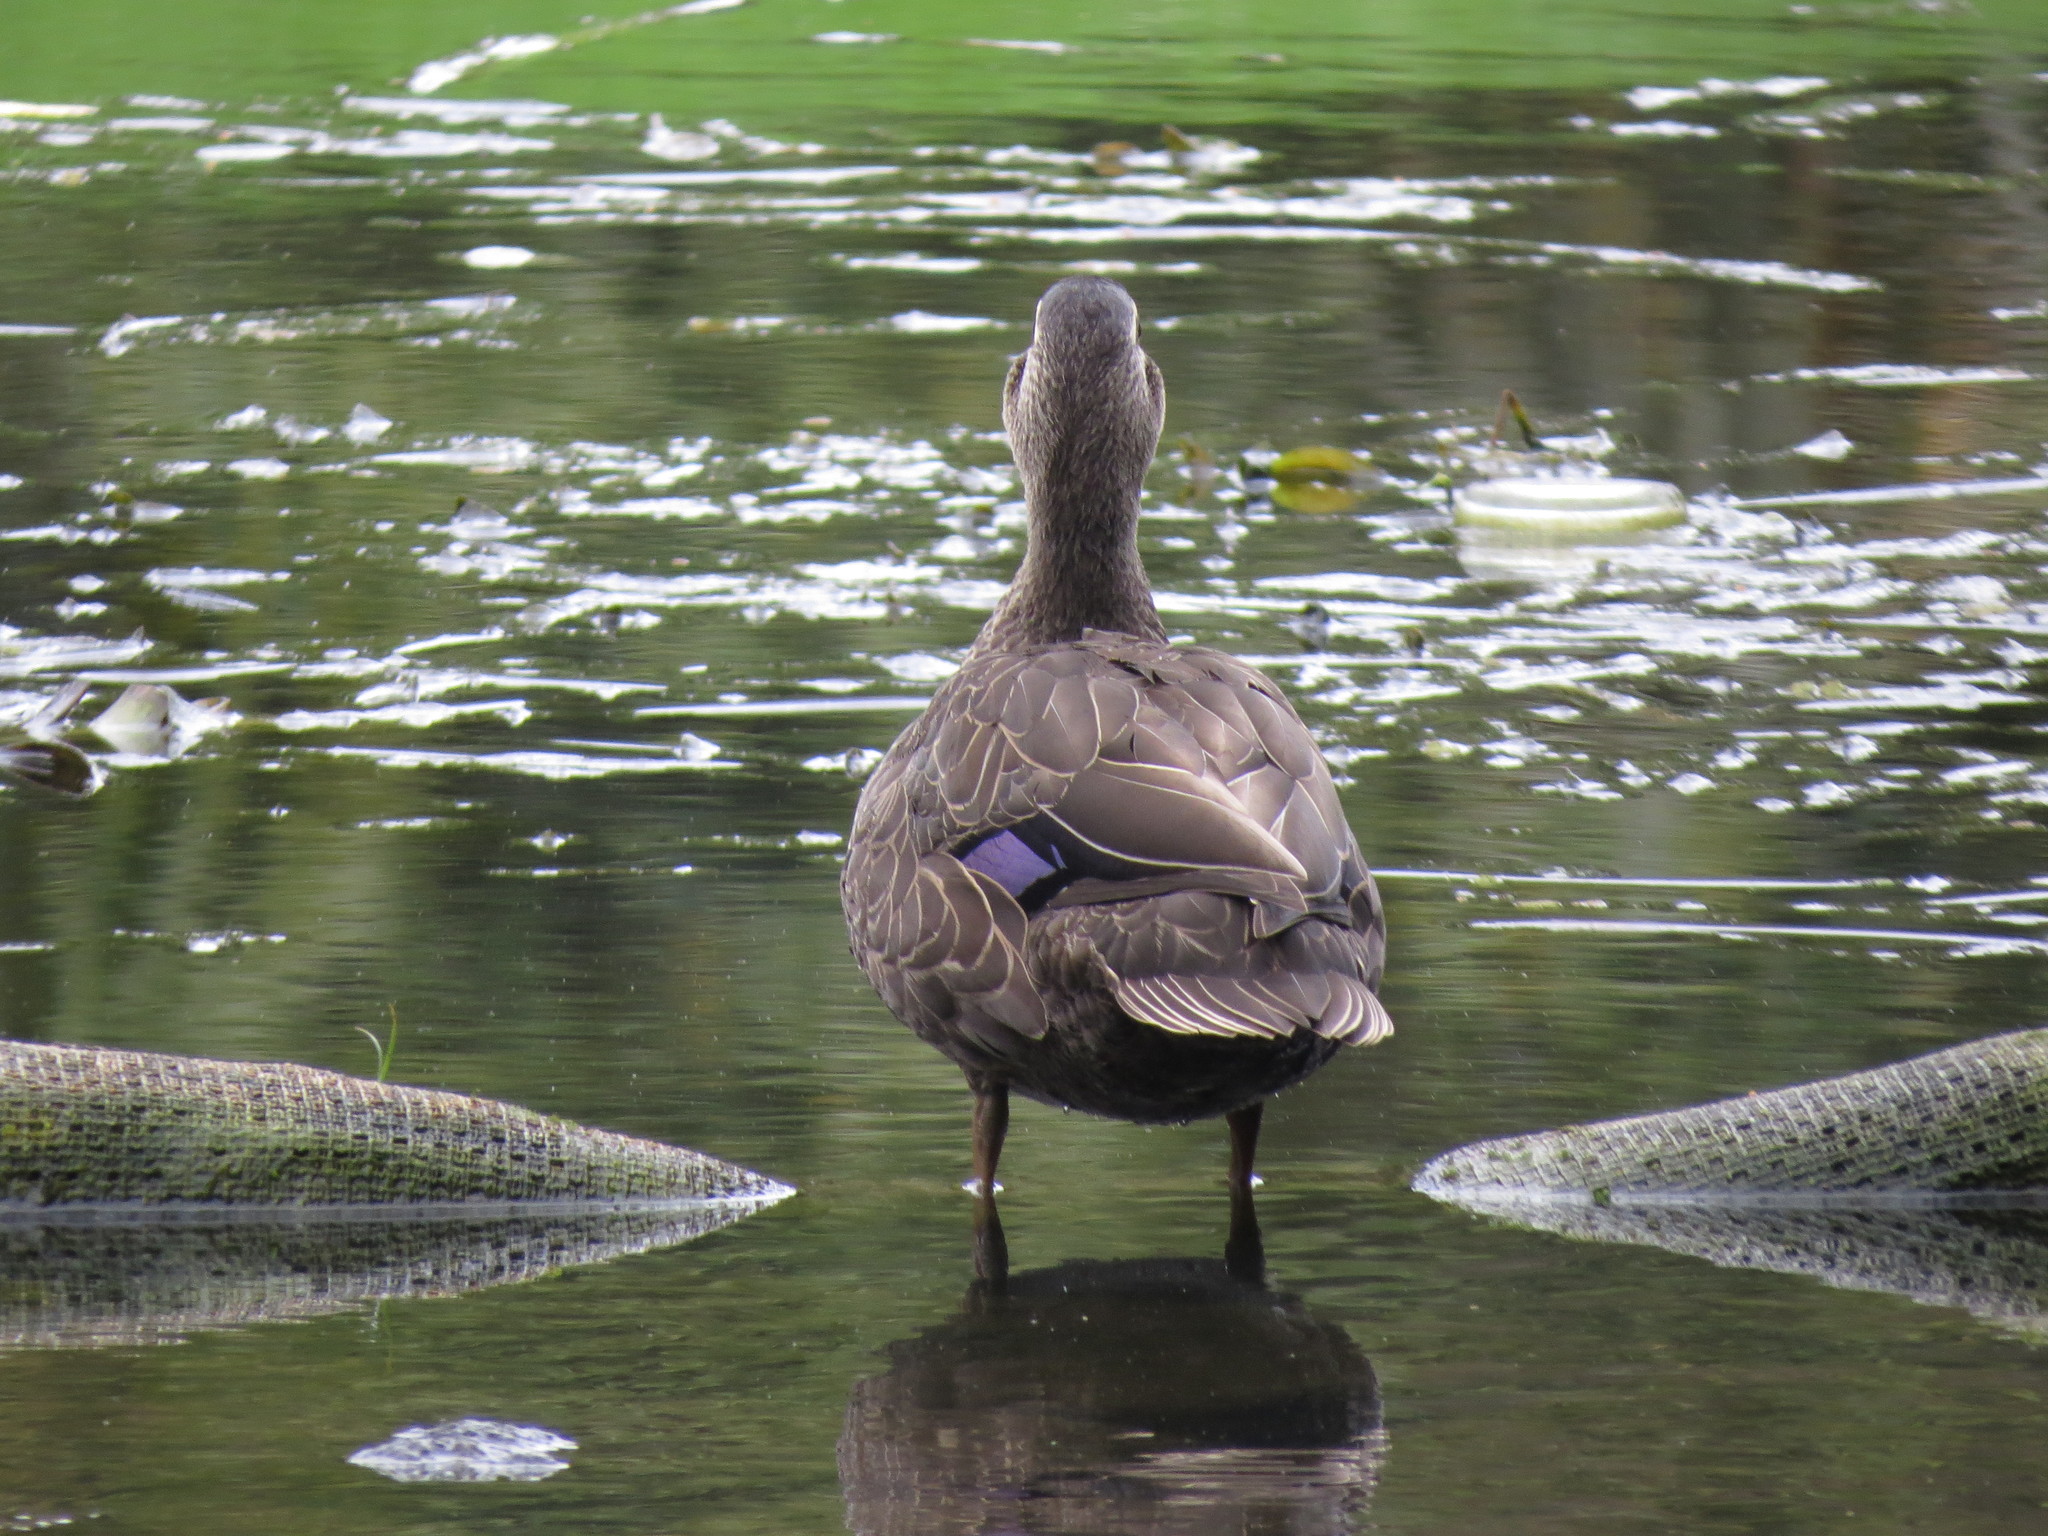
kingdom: Animalia
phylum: Chordata
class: Aves
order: Anseriformes
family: Anatidae
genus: Anas
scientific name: Anas superciliosa
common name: Pacific black duck
